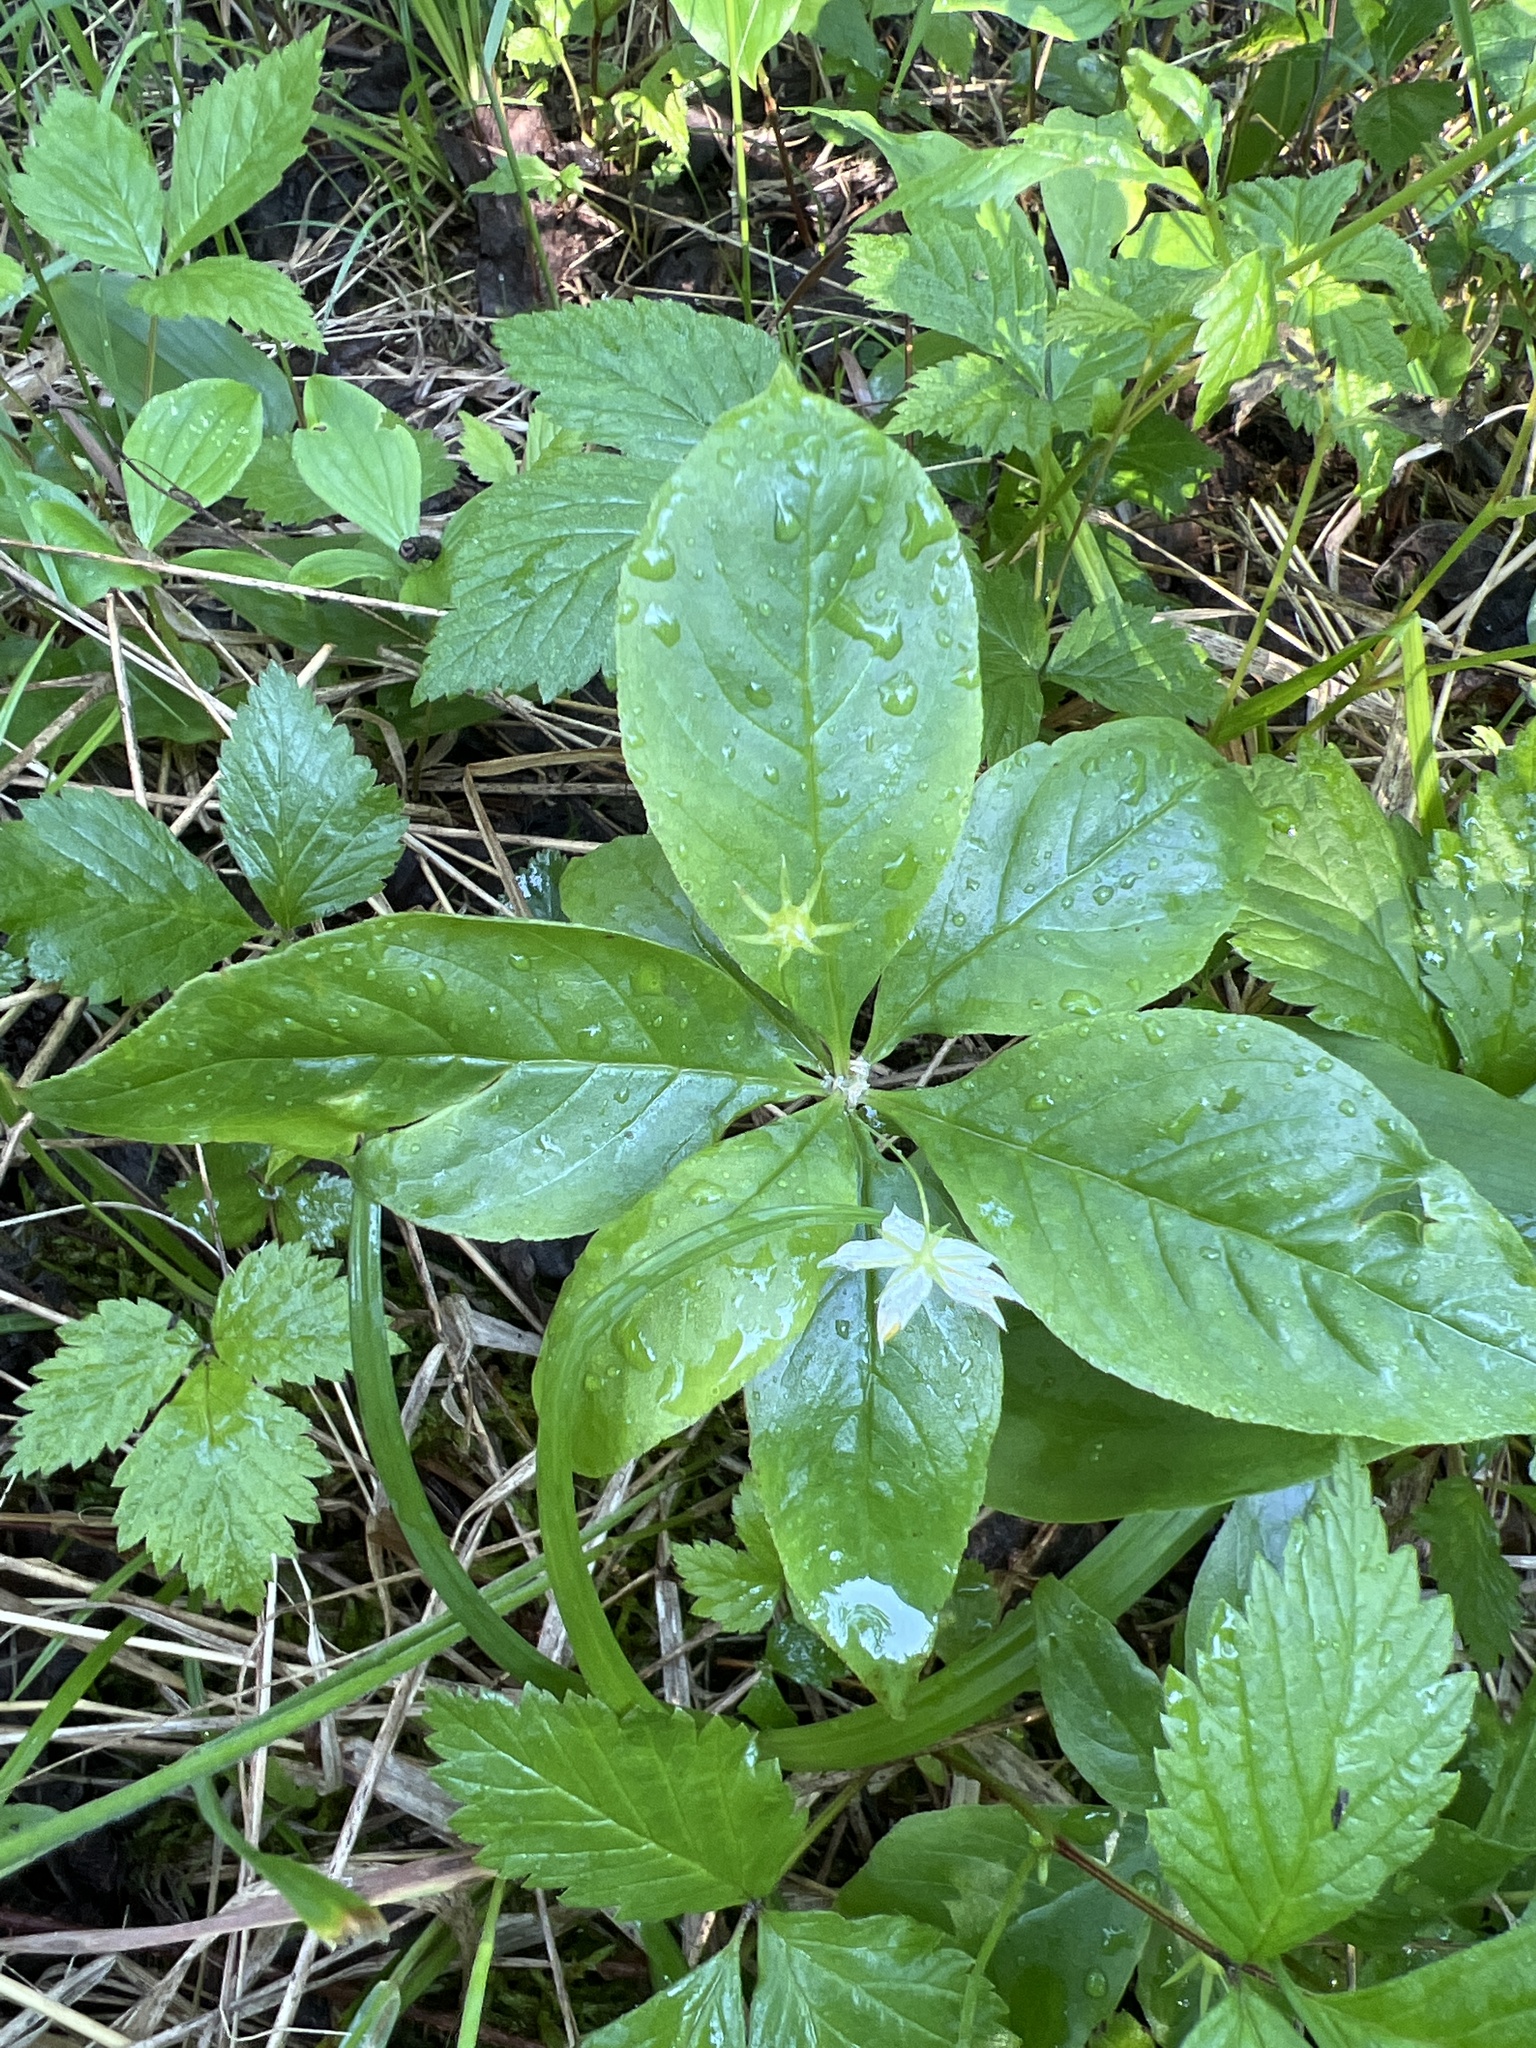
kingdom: Plantae
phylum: Tracheophyta
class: Magnoliopsida
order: Ericales
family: Primulaceae
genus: Lysimachia
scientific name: Lysimachia borealis
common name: American starflower
